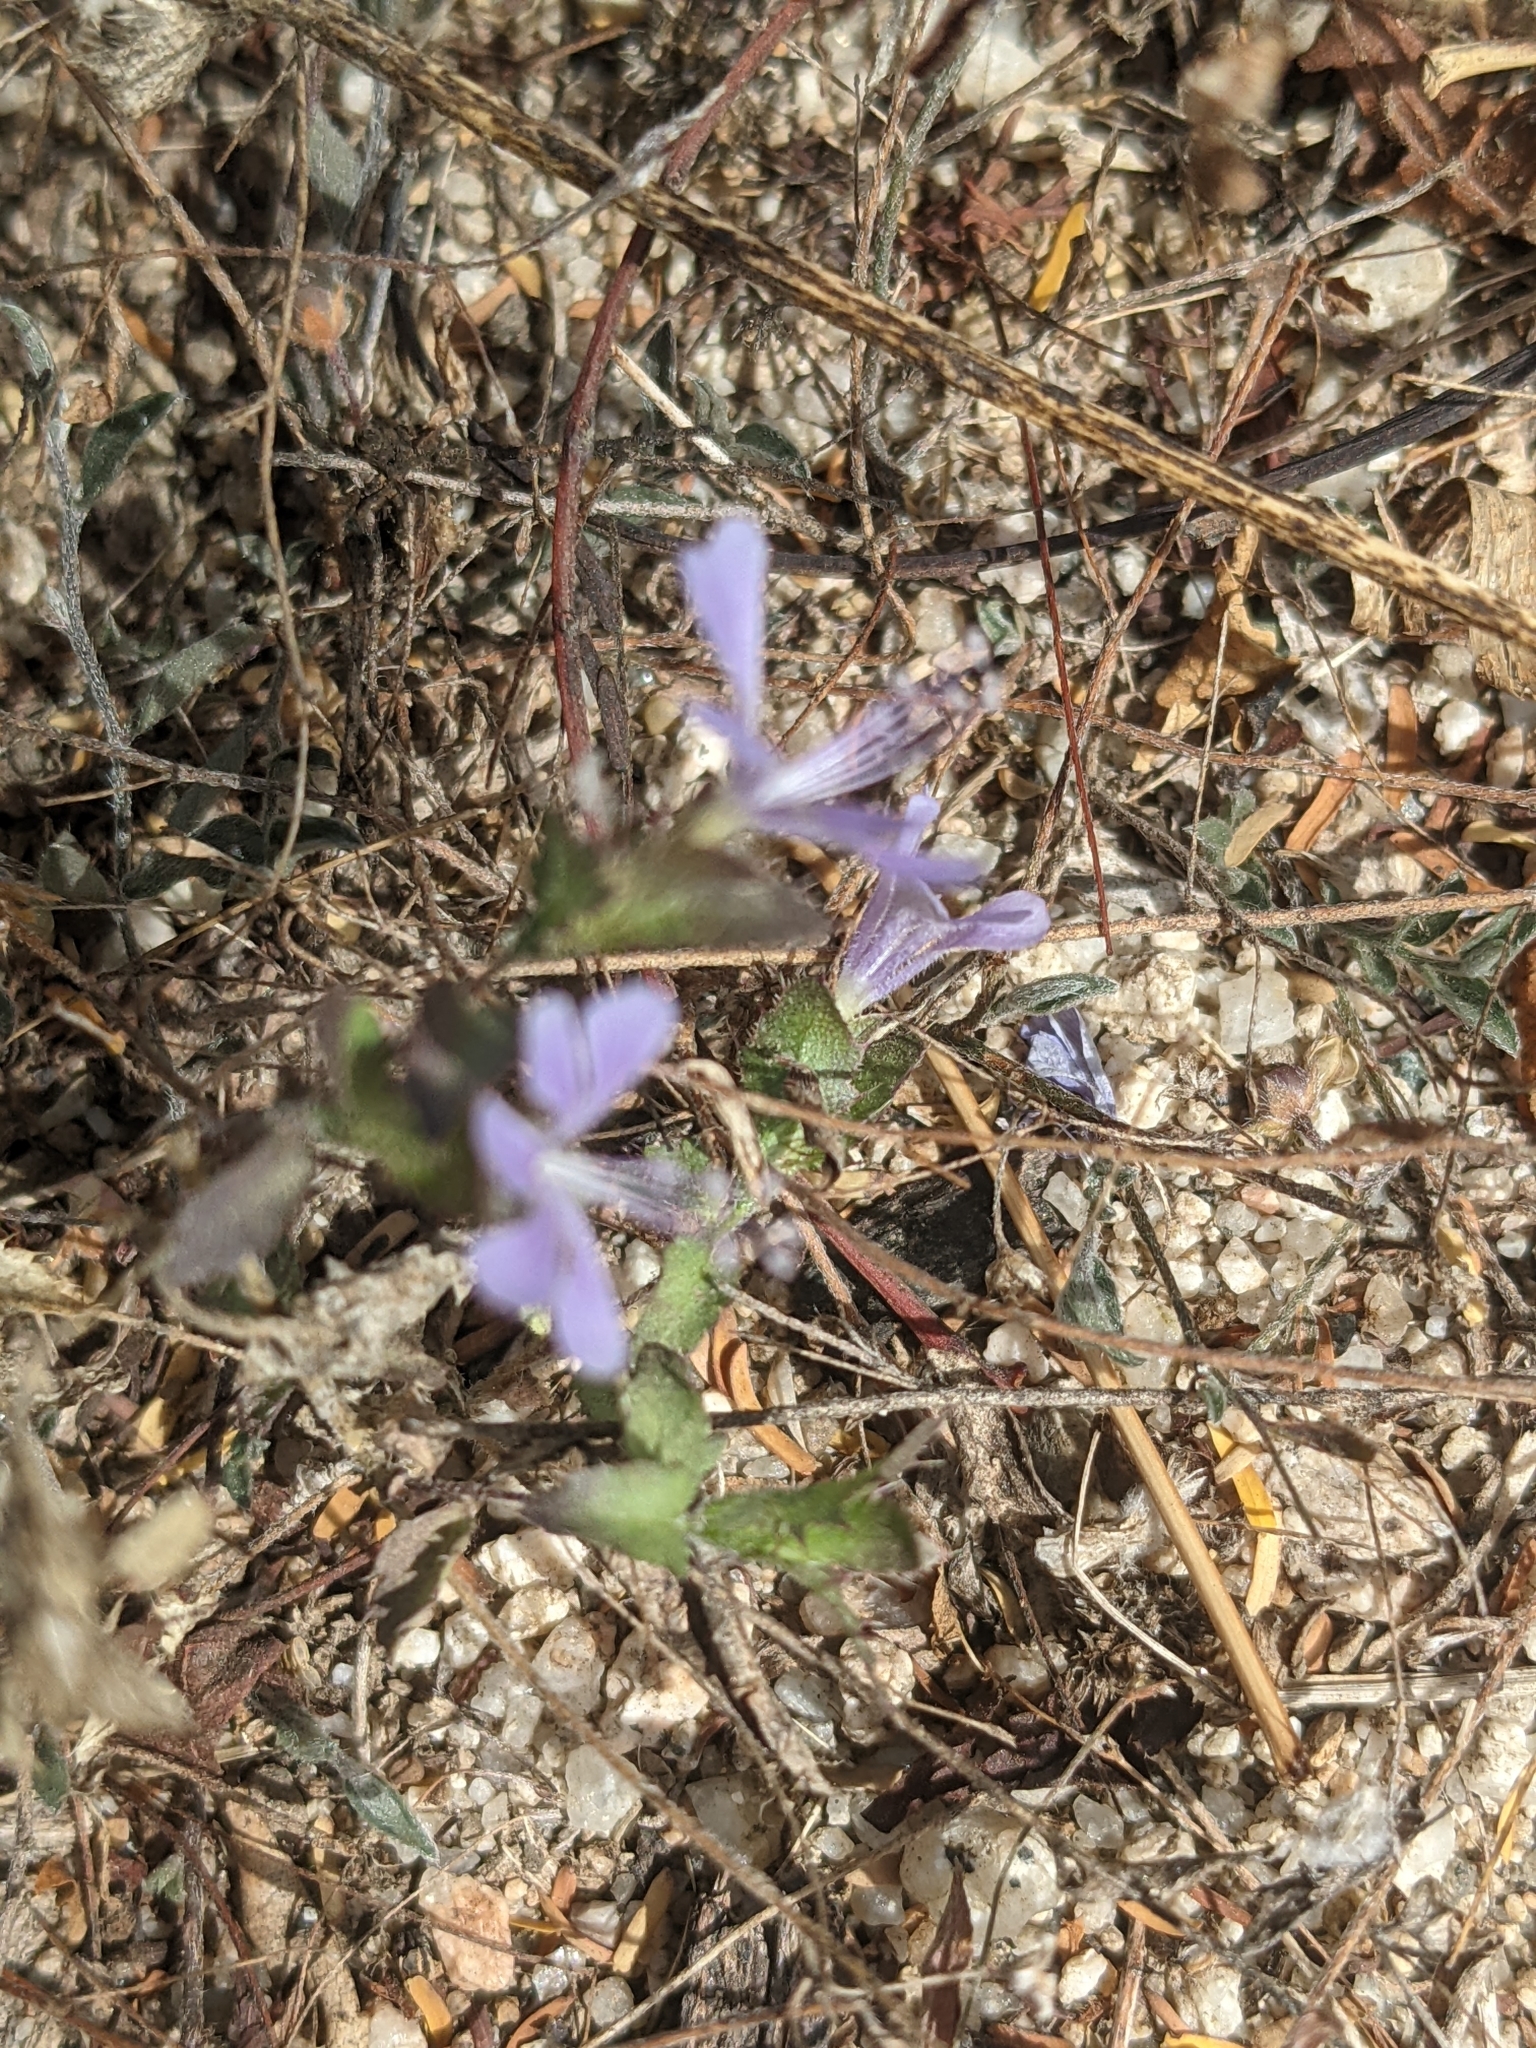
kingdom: Plantae
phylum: Tracheophyta
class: Magnoliopsida
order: Ericales
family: Polemoniaceae
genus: Loeselia
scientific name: Loeselia ciliata
